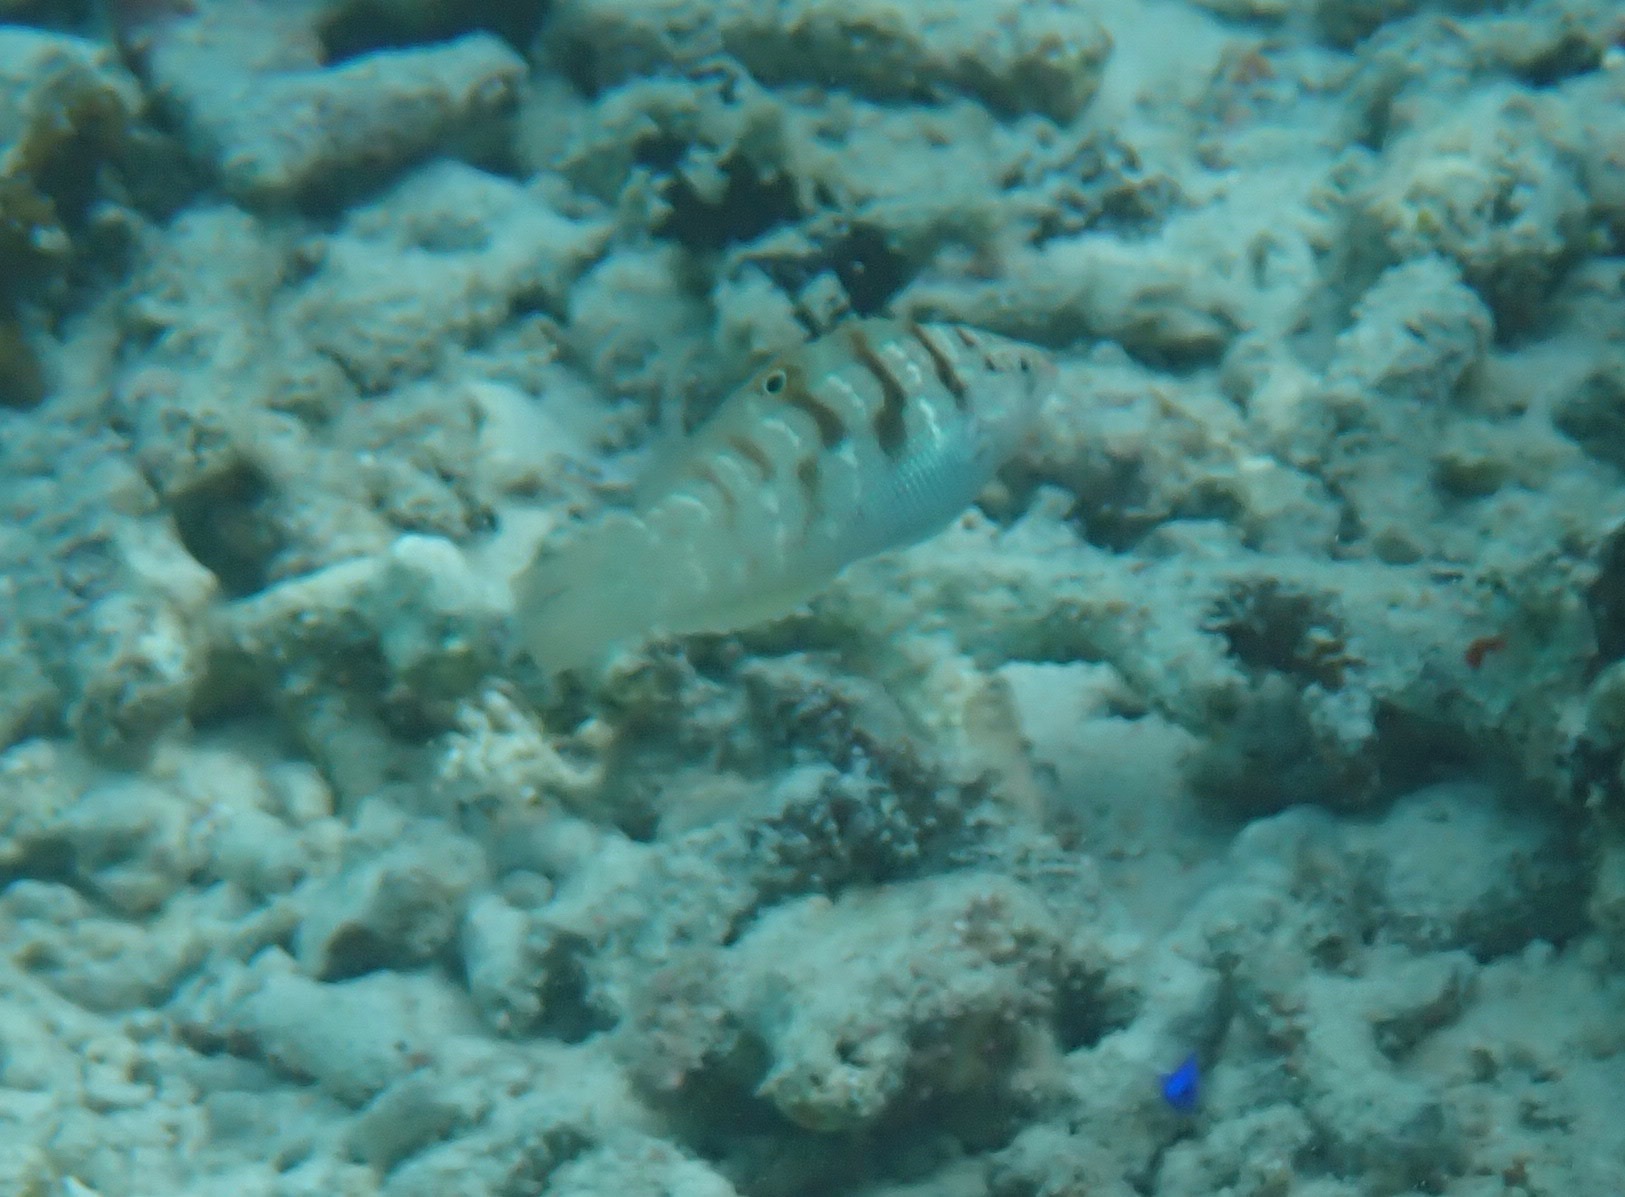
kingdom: Animalia
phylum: Chordata
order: Perciformes
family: Labridae
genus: Coris
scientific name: Coris batuensis
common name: Batu coris
